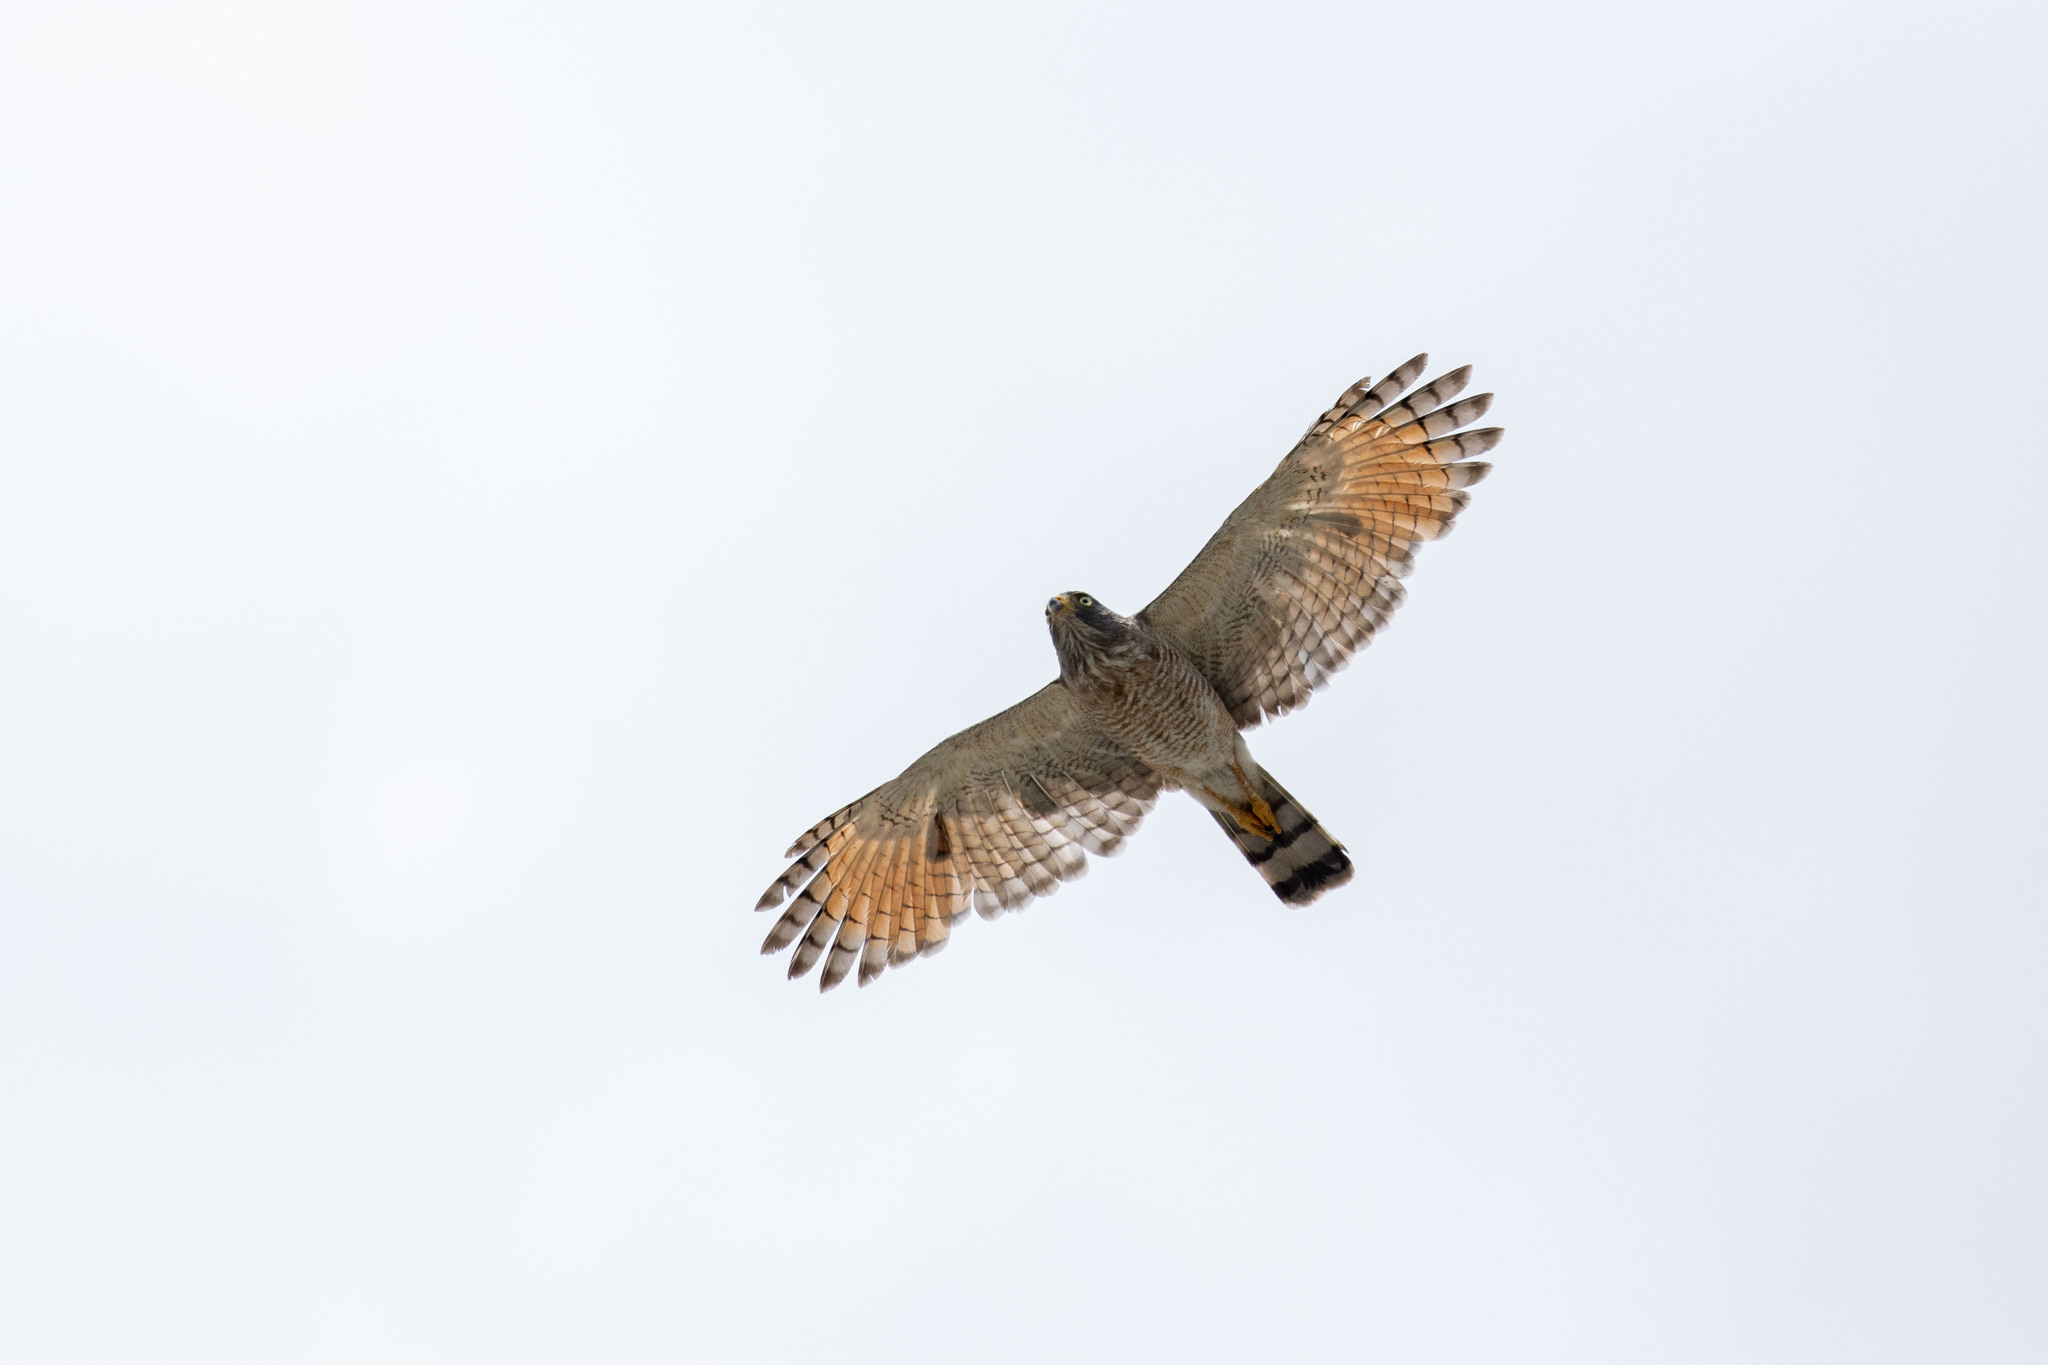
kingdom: Animalia
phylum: Chordata
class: Aves
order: Accipitriformes
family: Accipitridae
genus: Rupornis
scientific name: Rupornis magnirostris
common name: Roadside hawk
